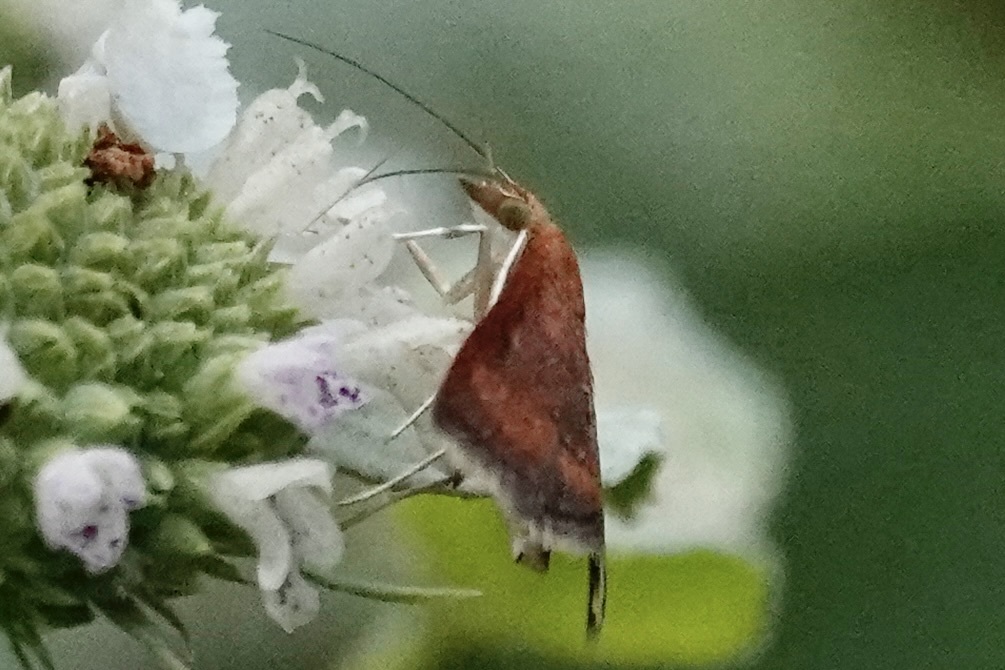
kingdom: Animalia
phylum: Arthropoda
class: Insecta
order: Lepidoptera
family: Crambidae
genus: Pyrausta
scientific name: Pyrausta rubricalis
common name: Variable reddish pyrausta
